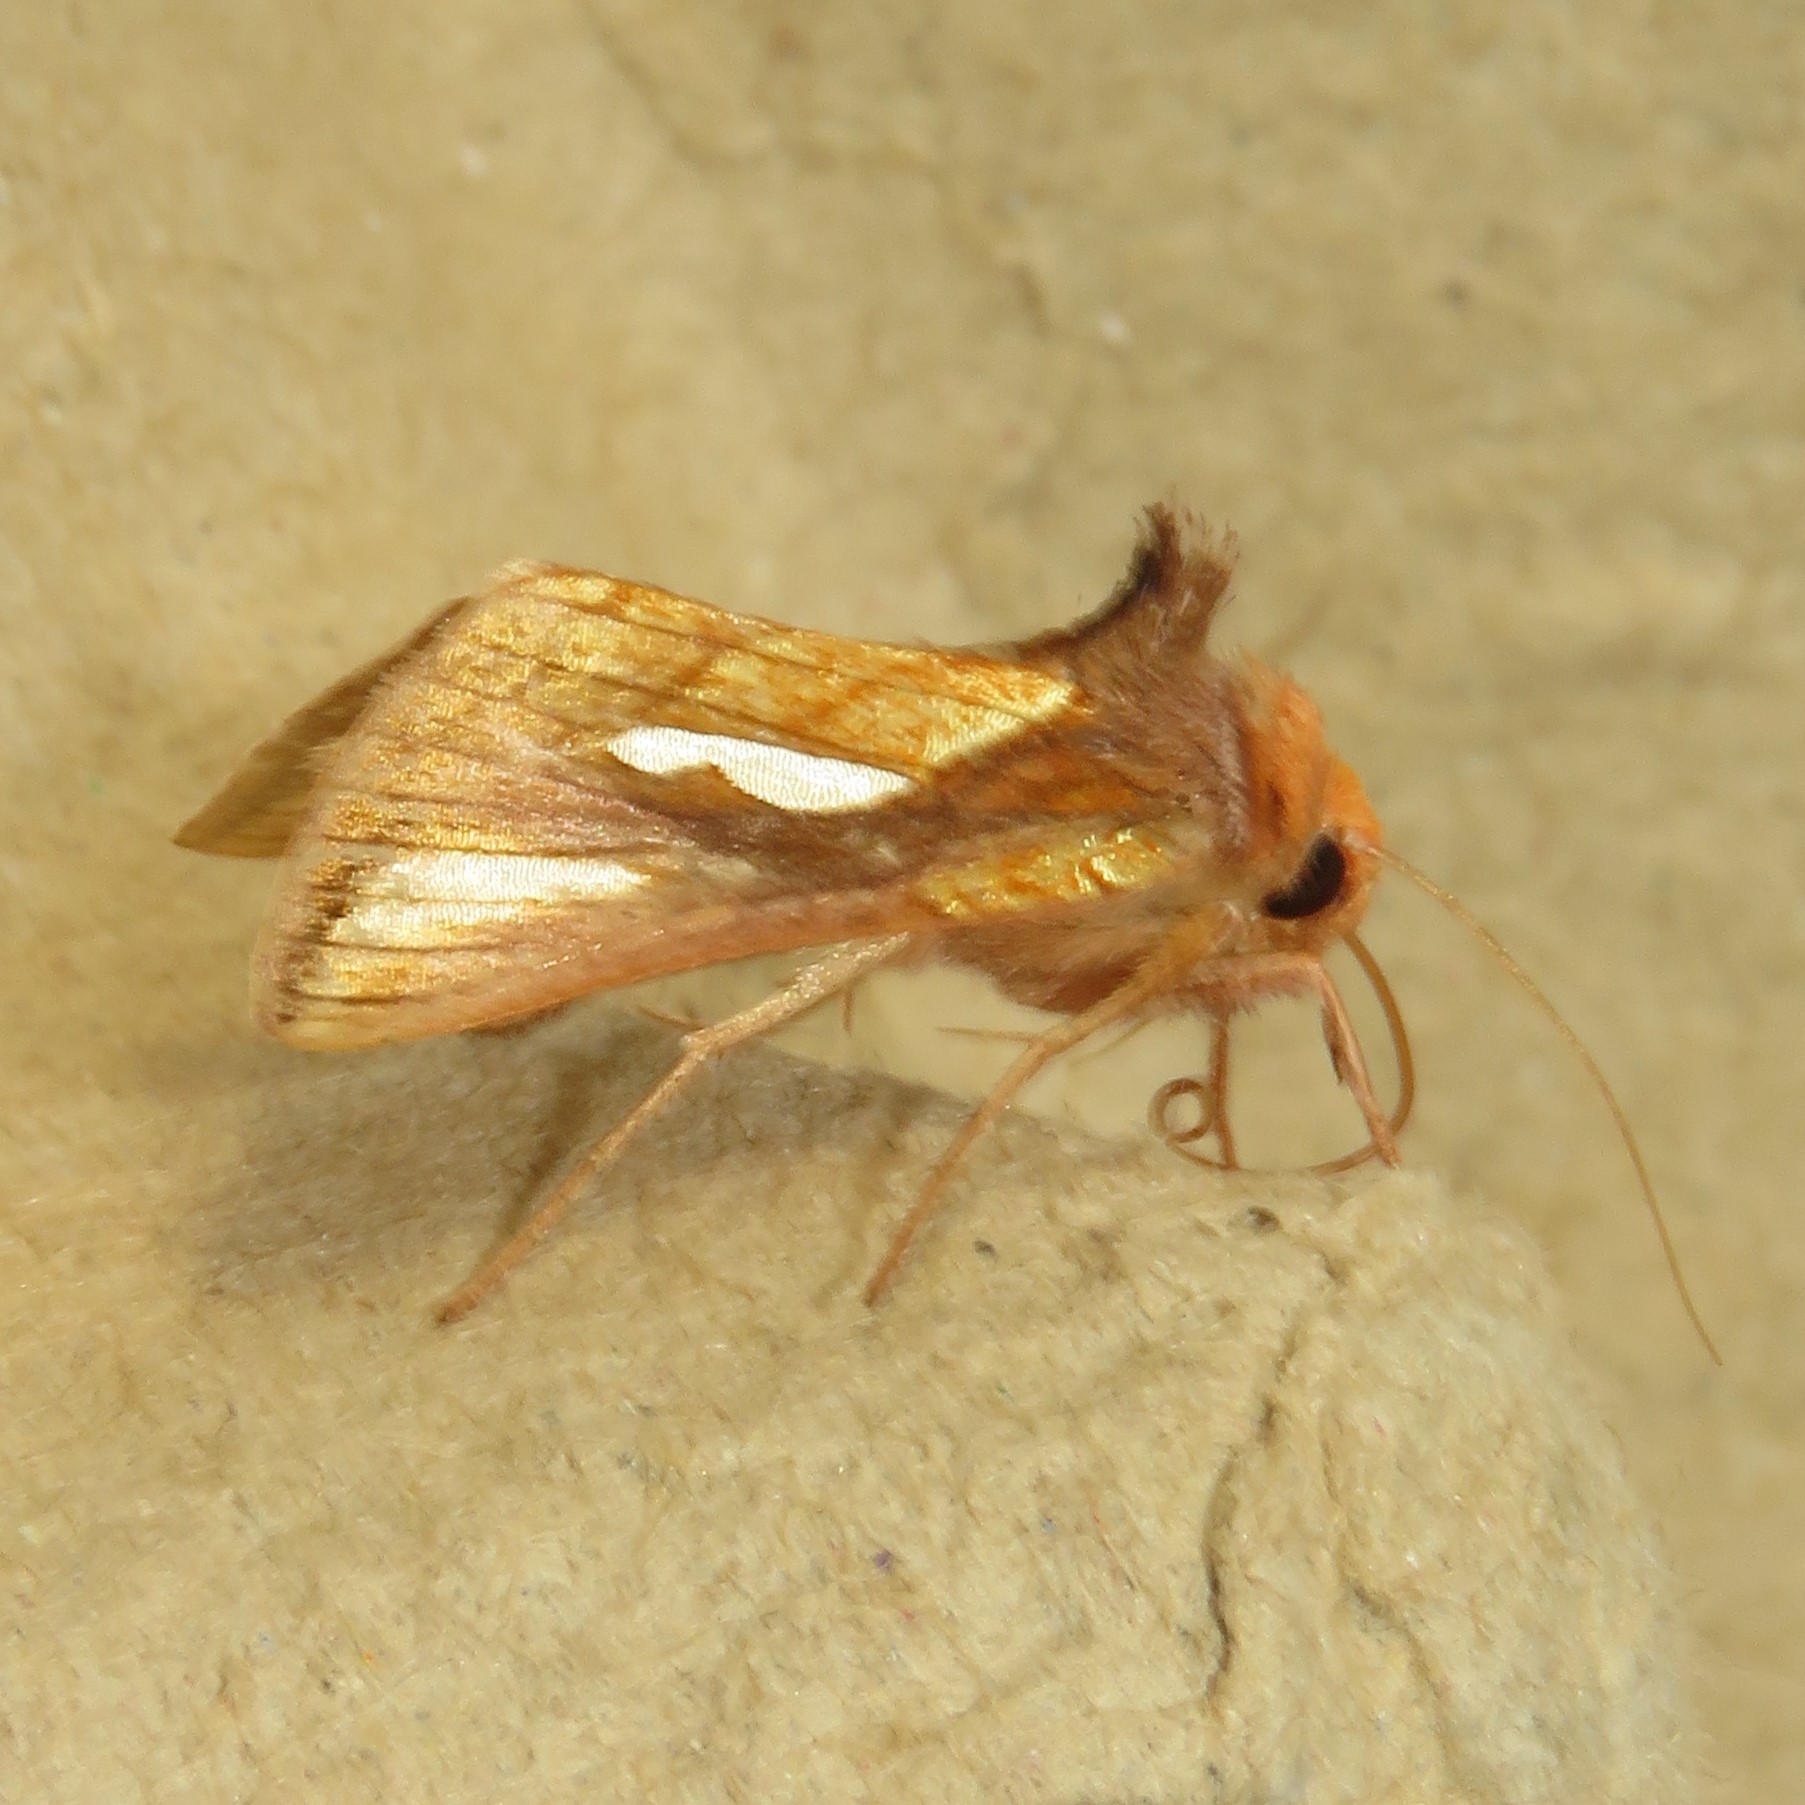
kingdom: Animalia
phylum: Arthropoda
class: Insecta
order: Lepidoptera
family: Noctuidae
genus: Plusia
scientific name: Plusia contexta
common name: Connected looper moth
